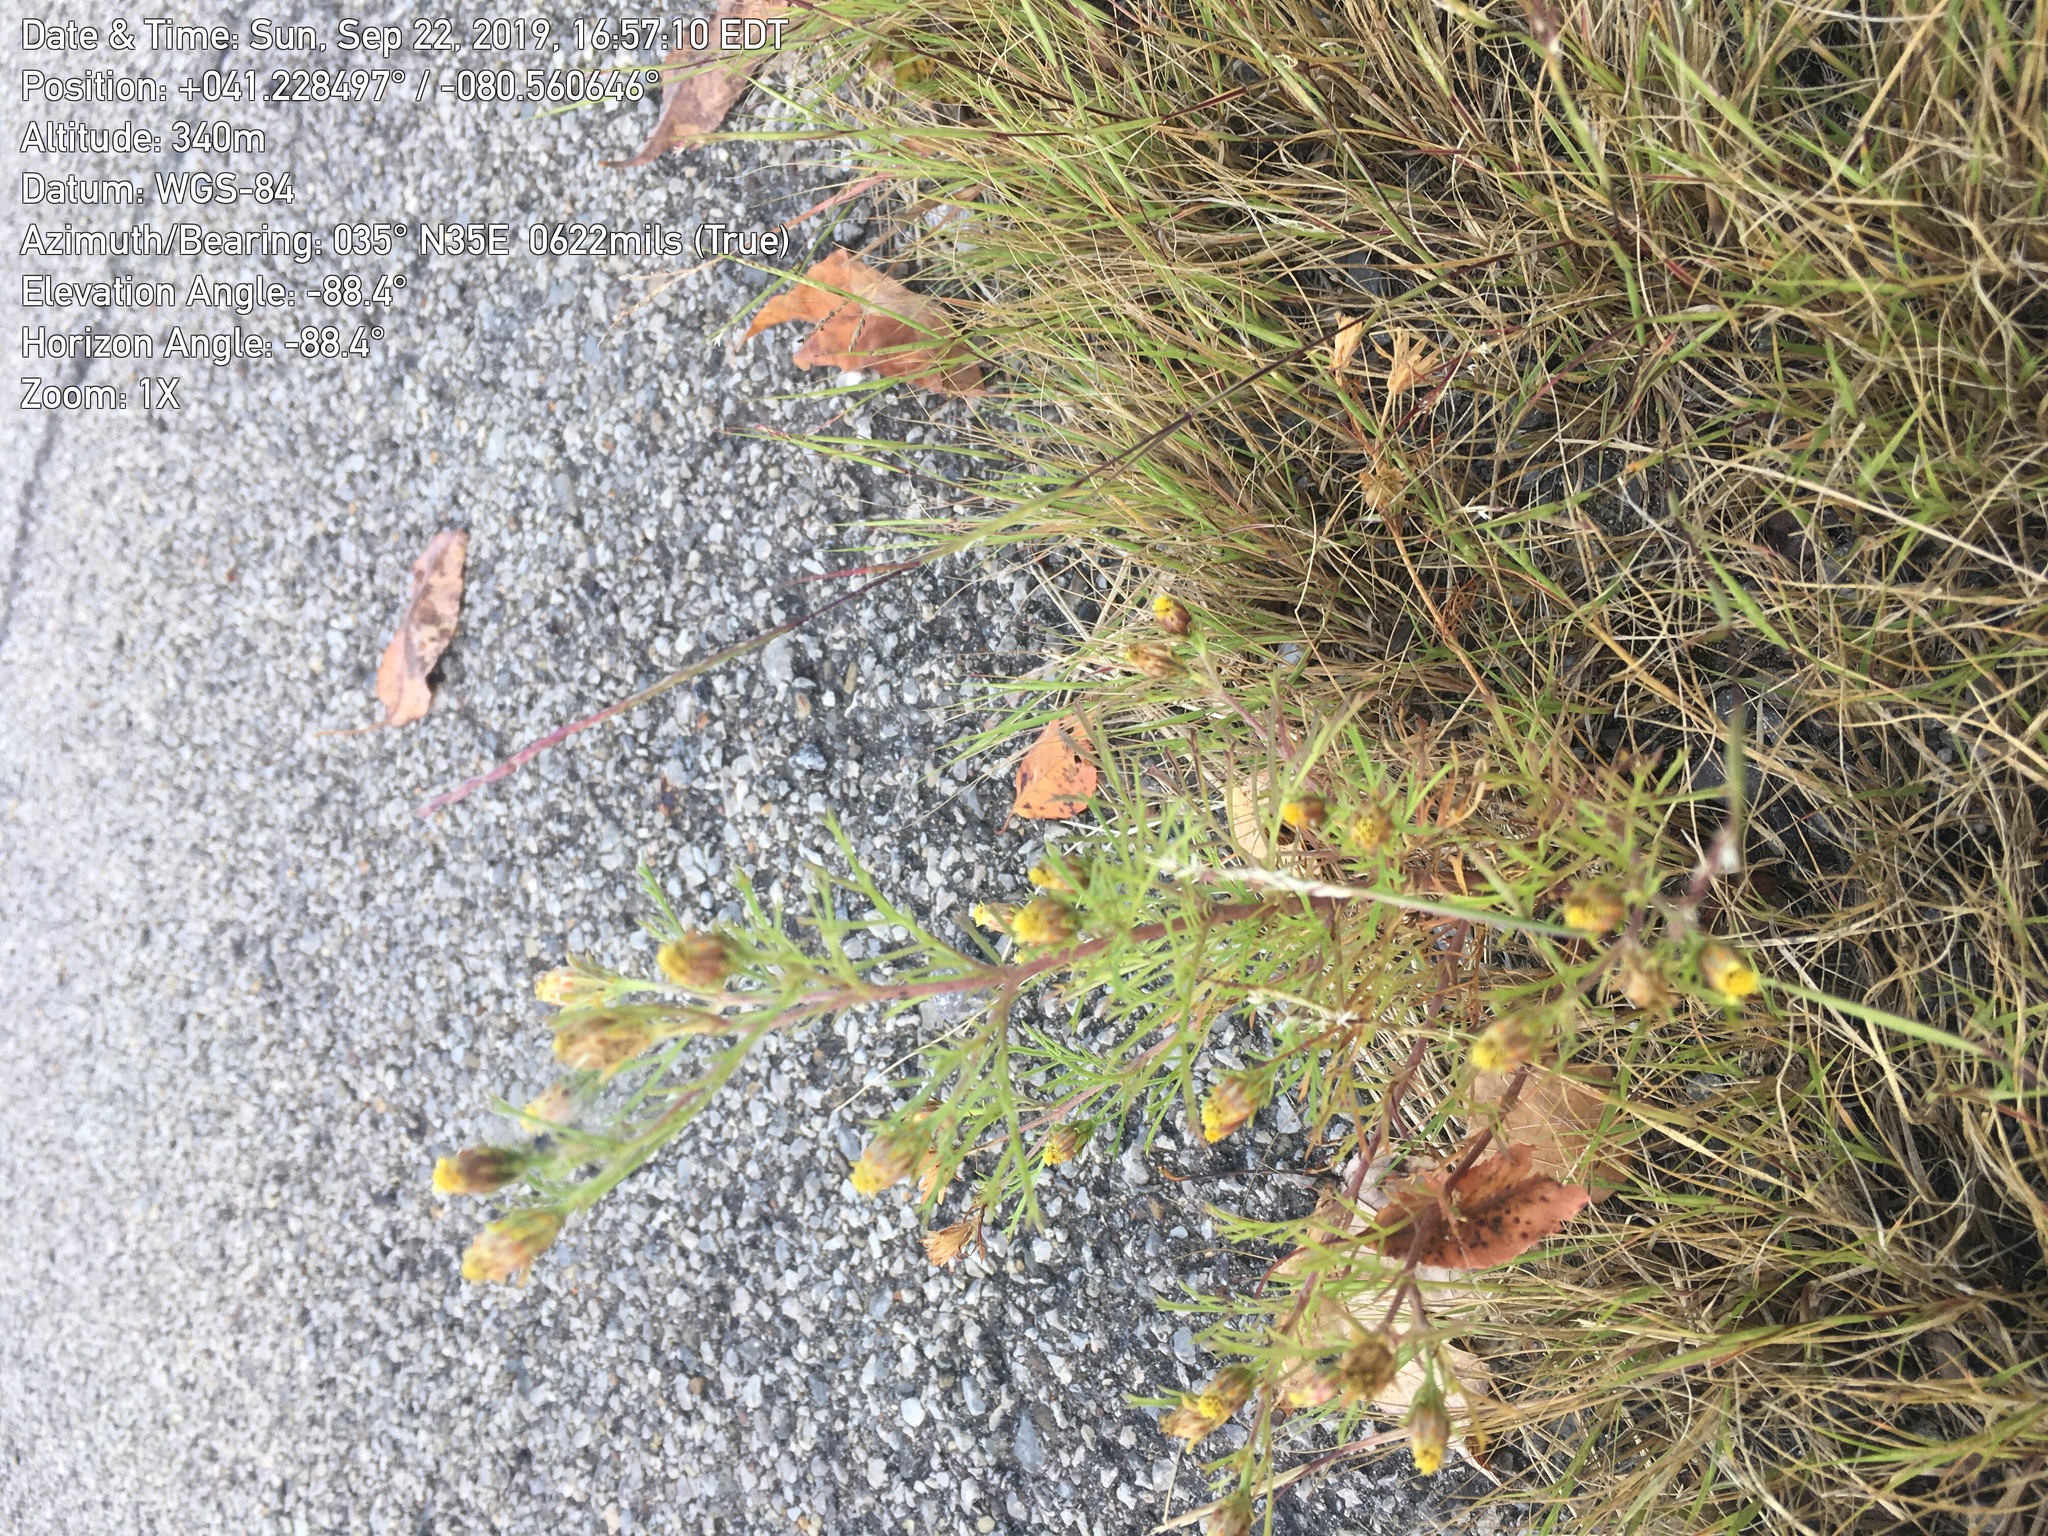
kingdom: Plantae
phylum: Tracheophyta
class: Magnoliopsida
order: Asterales
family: Asteraceae
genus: Dyssodia
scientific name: Dyssodia papposa
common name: Dogweed
